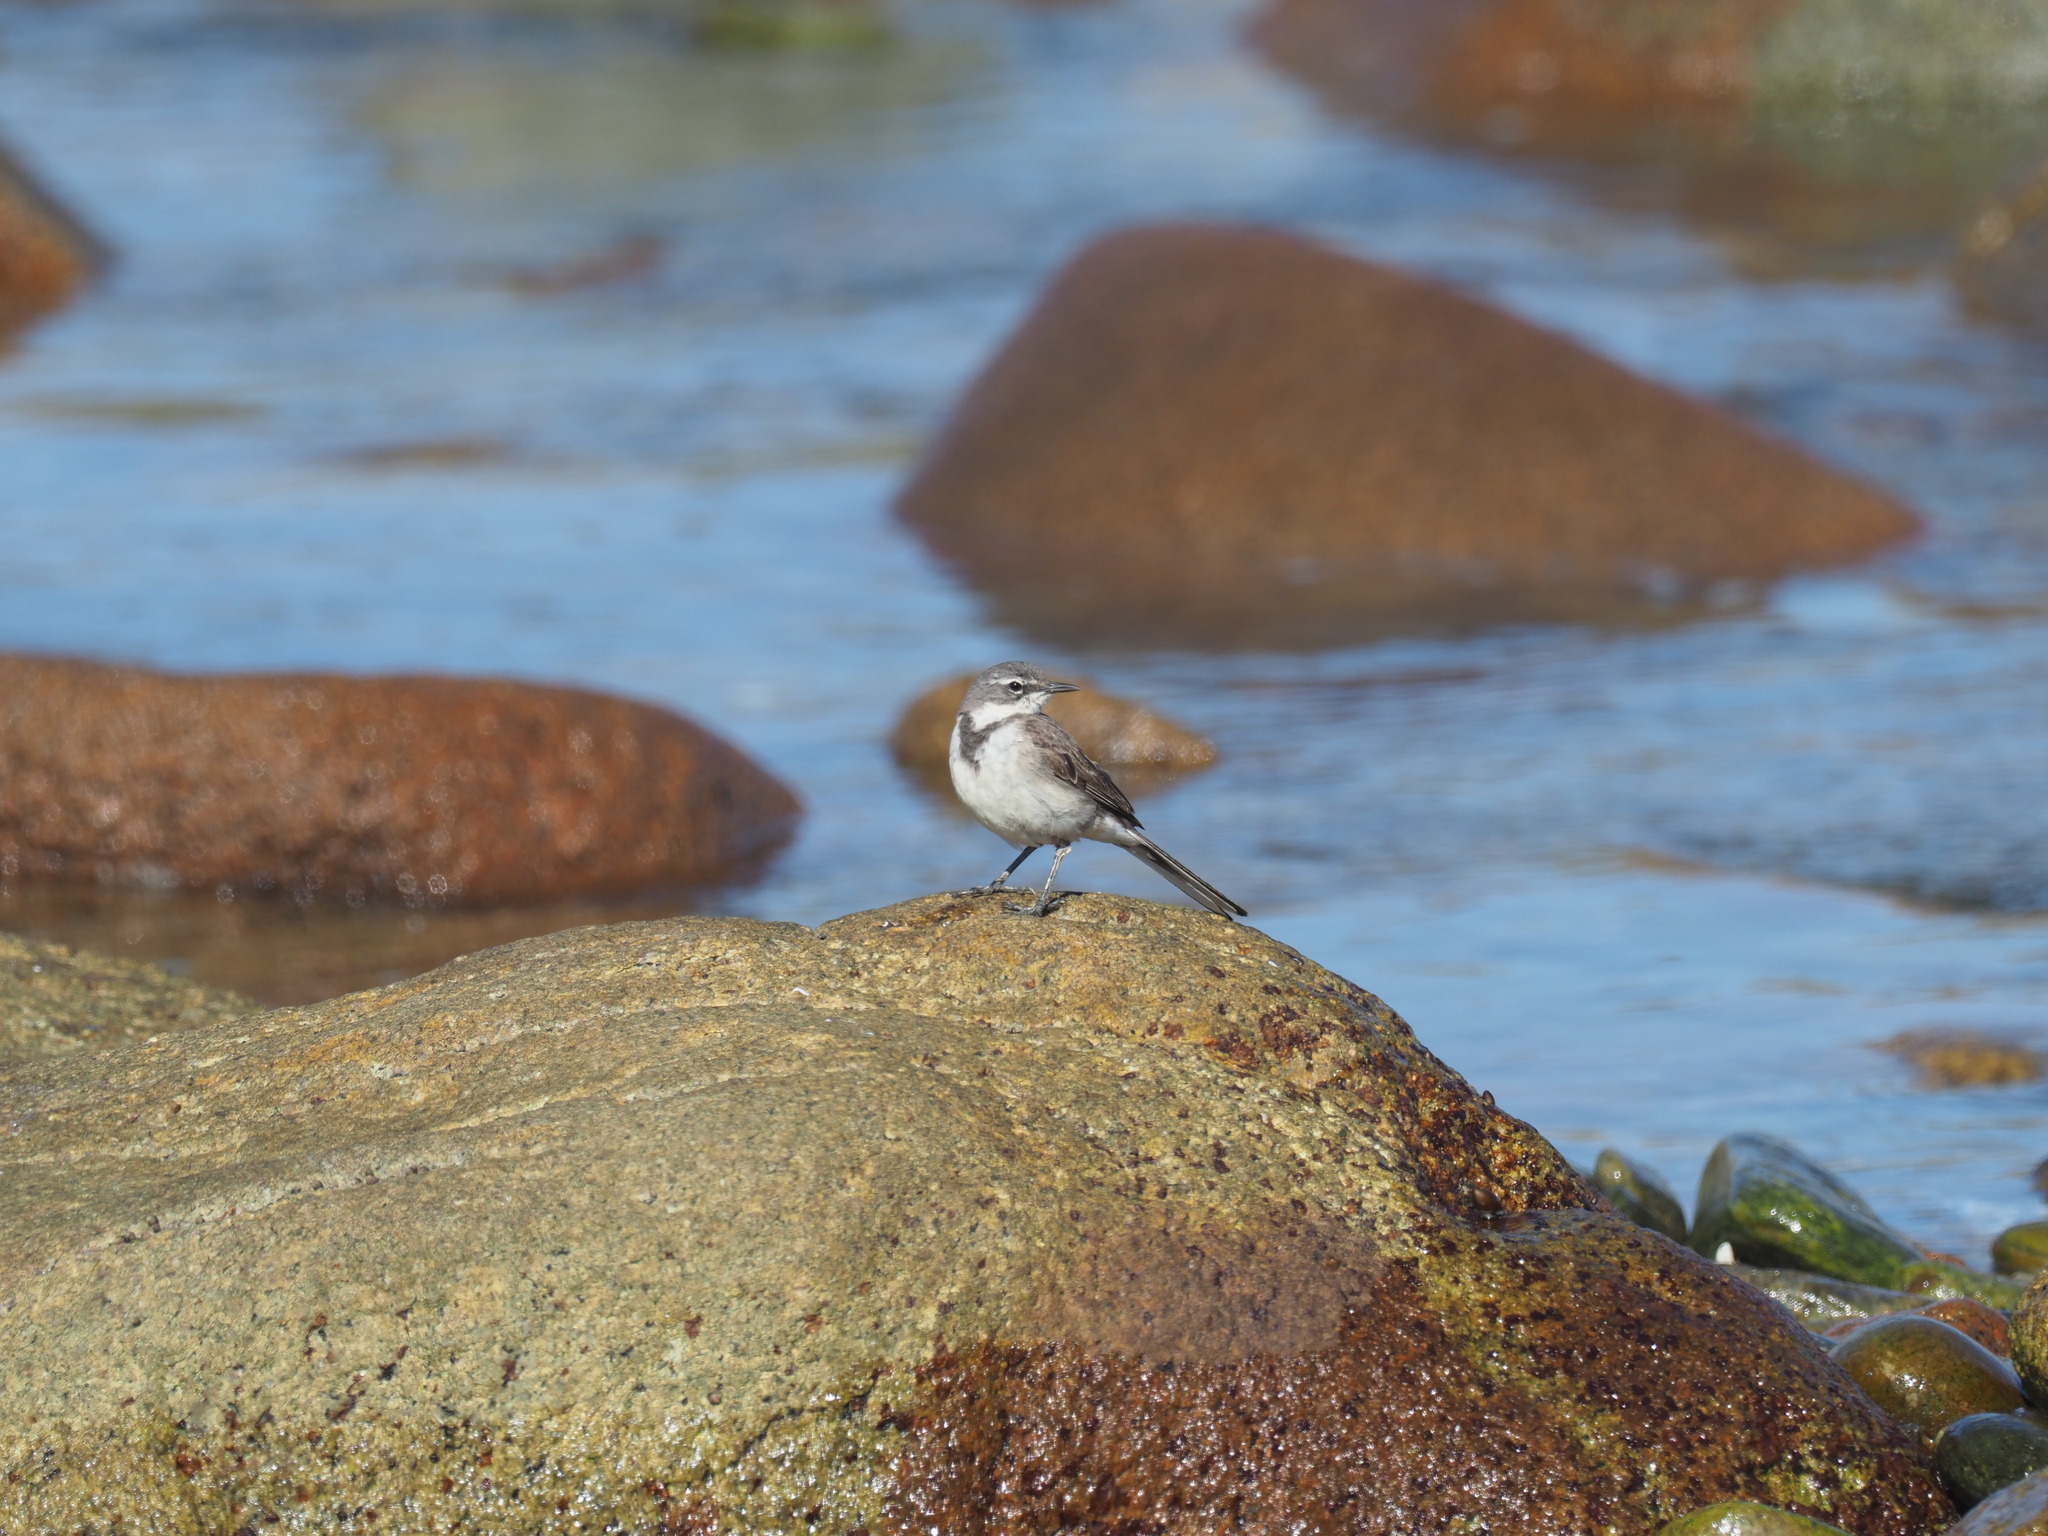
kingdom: Animalia
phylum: Chordata
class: Aves
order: Passeriformes
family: Motacillidae
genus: Motacilla
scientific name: Motacilla capensis
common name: Cape wagtail
